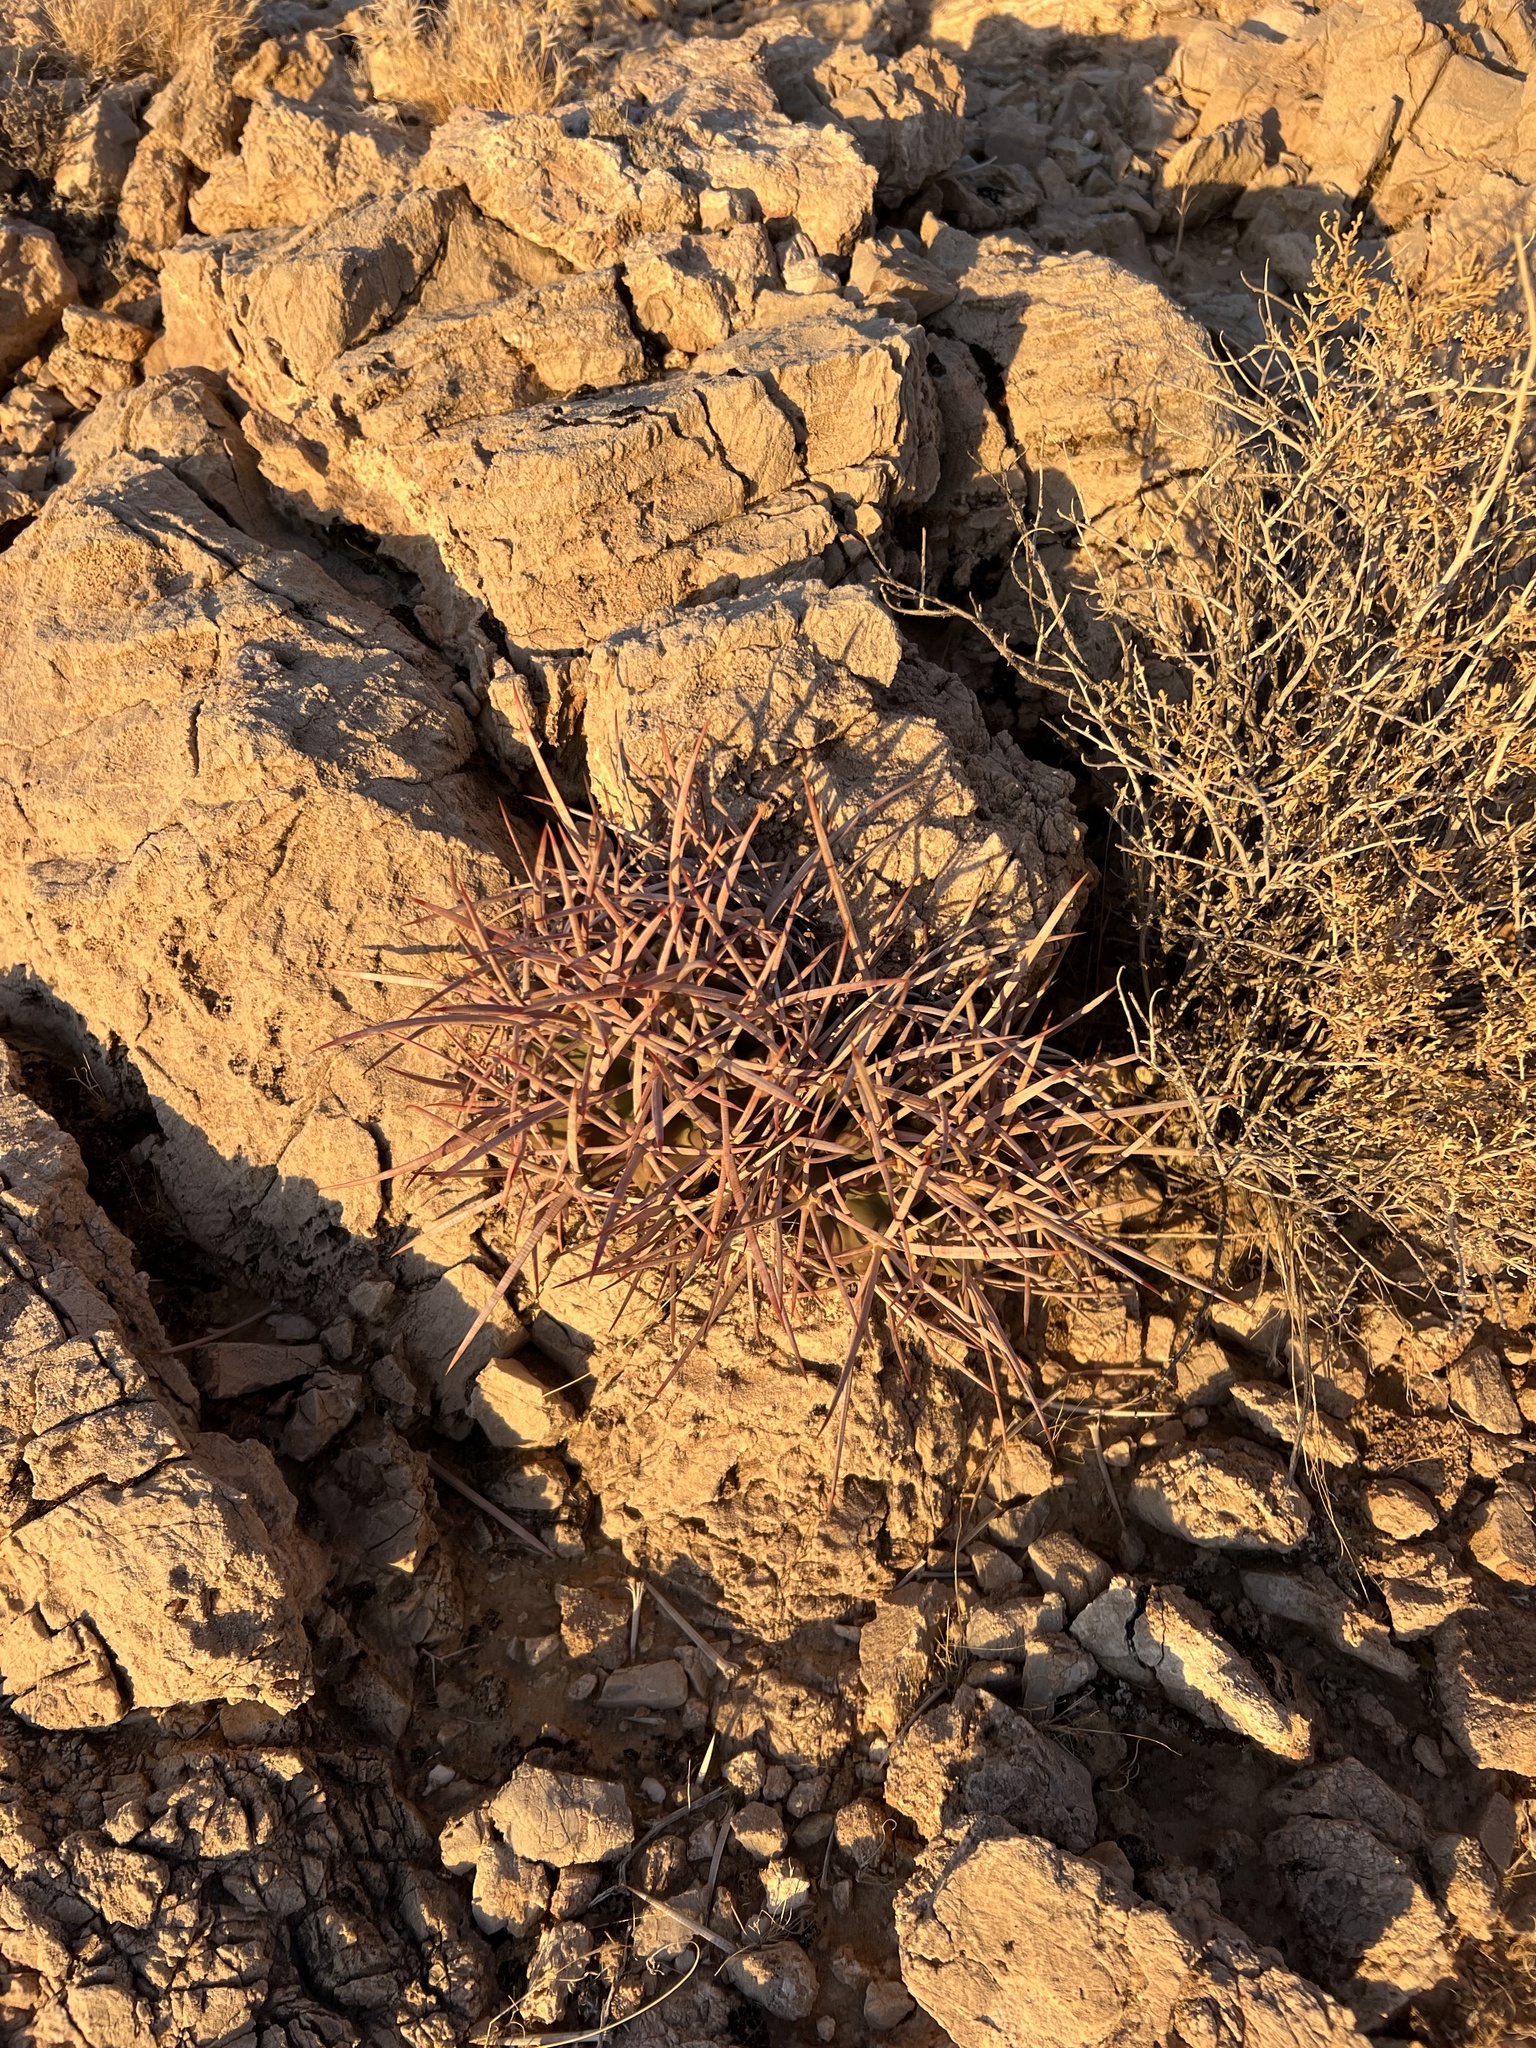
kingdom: Plantae
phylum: Tracheophyta
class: Magnoliopsida
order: Caryophyllales
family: Cactaceae
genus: Echinocactus
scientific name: Echinocactus polycephalus
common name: Cottontop cactus
